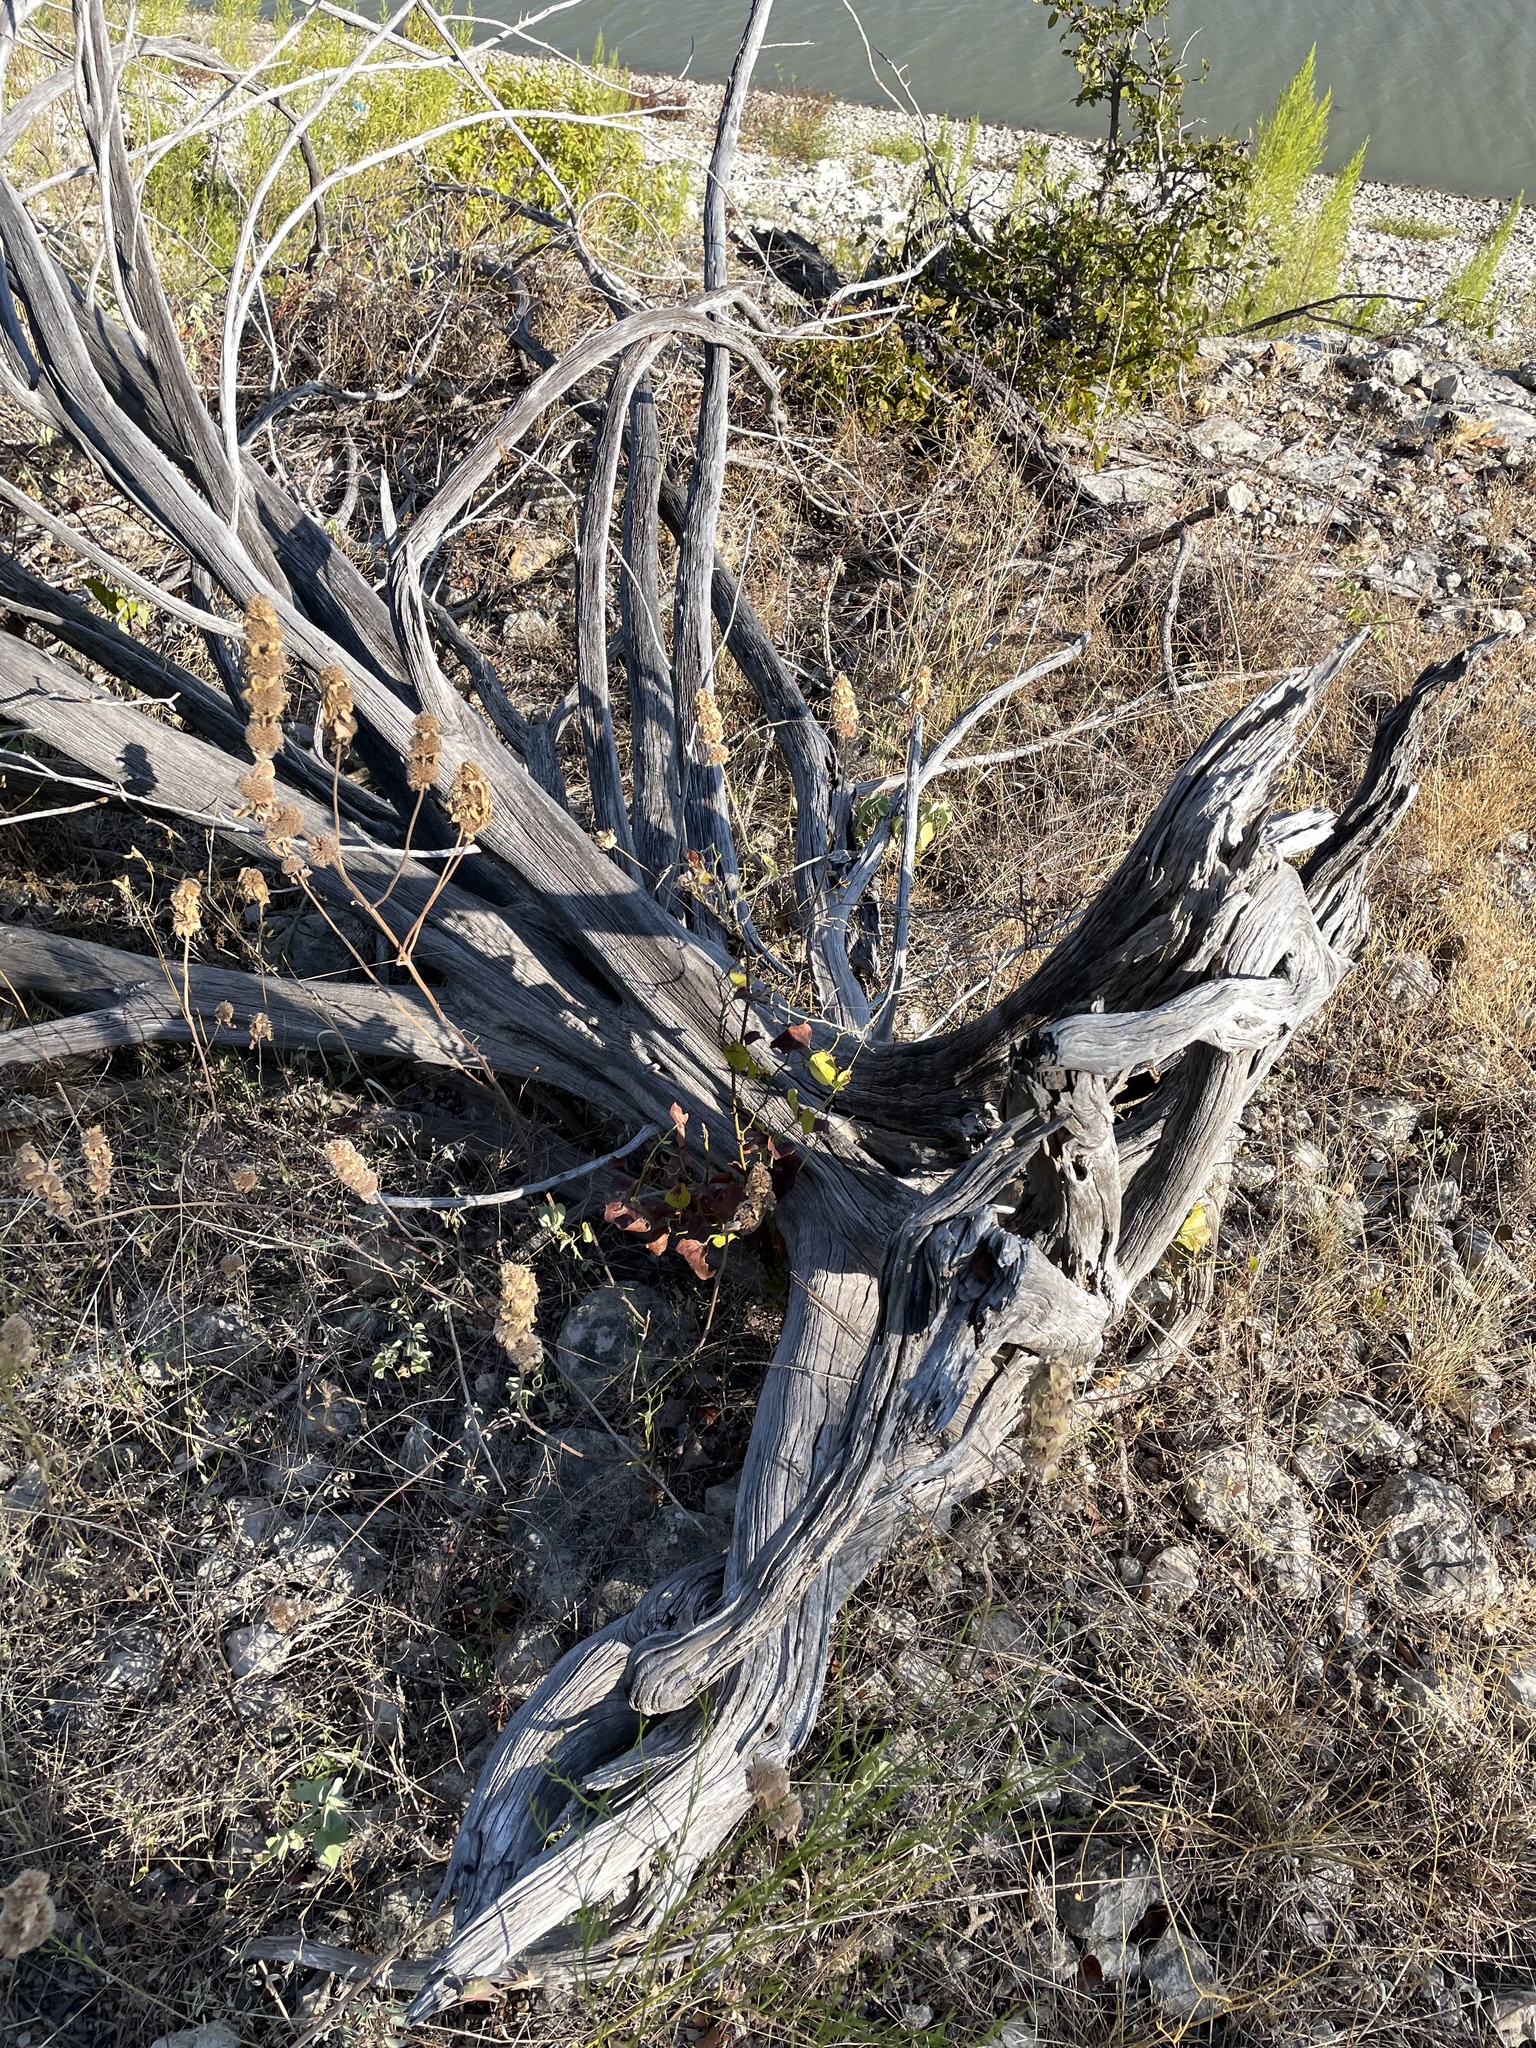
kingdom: Plantae
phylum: Tracheophyta
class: Pinopsida
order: Pinales
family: Cupressaceae
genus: Juniperus
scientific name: Juniperus ashei
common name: Mexican juniper
